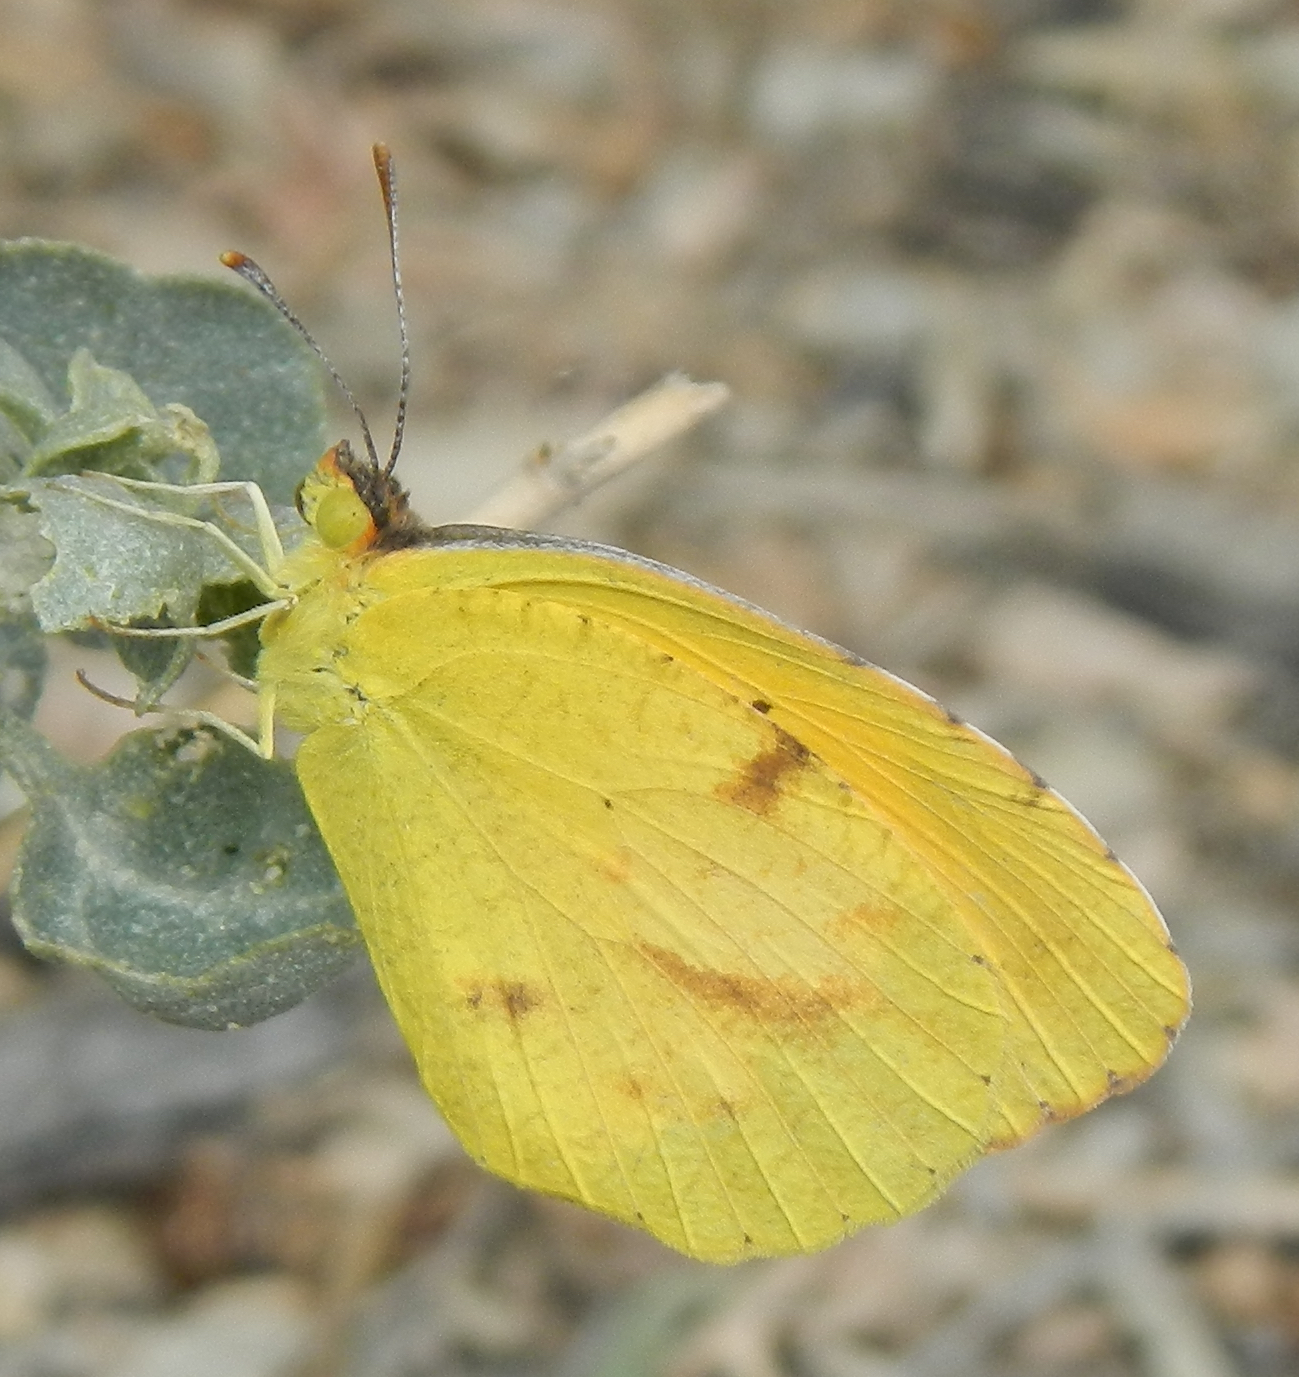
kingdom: Animalia
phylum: Arthropoda
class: Insecta
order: Lepidoptera
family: Pieridae
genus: Abaeis
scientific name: Abaeis nicippe
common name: Sleepy orange
